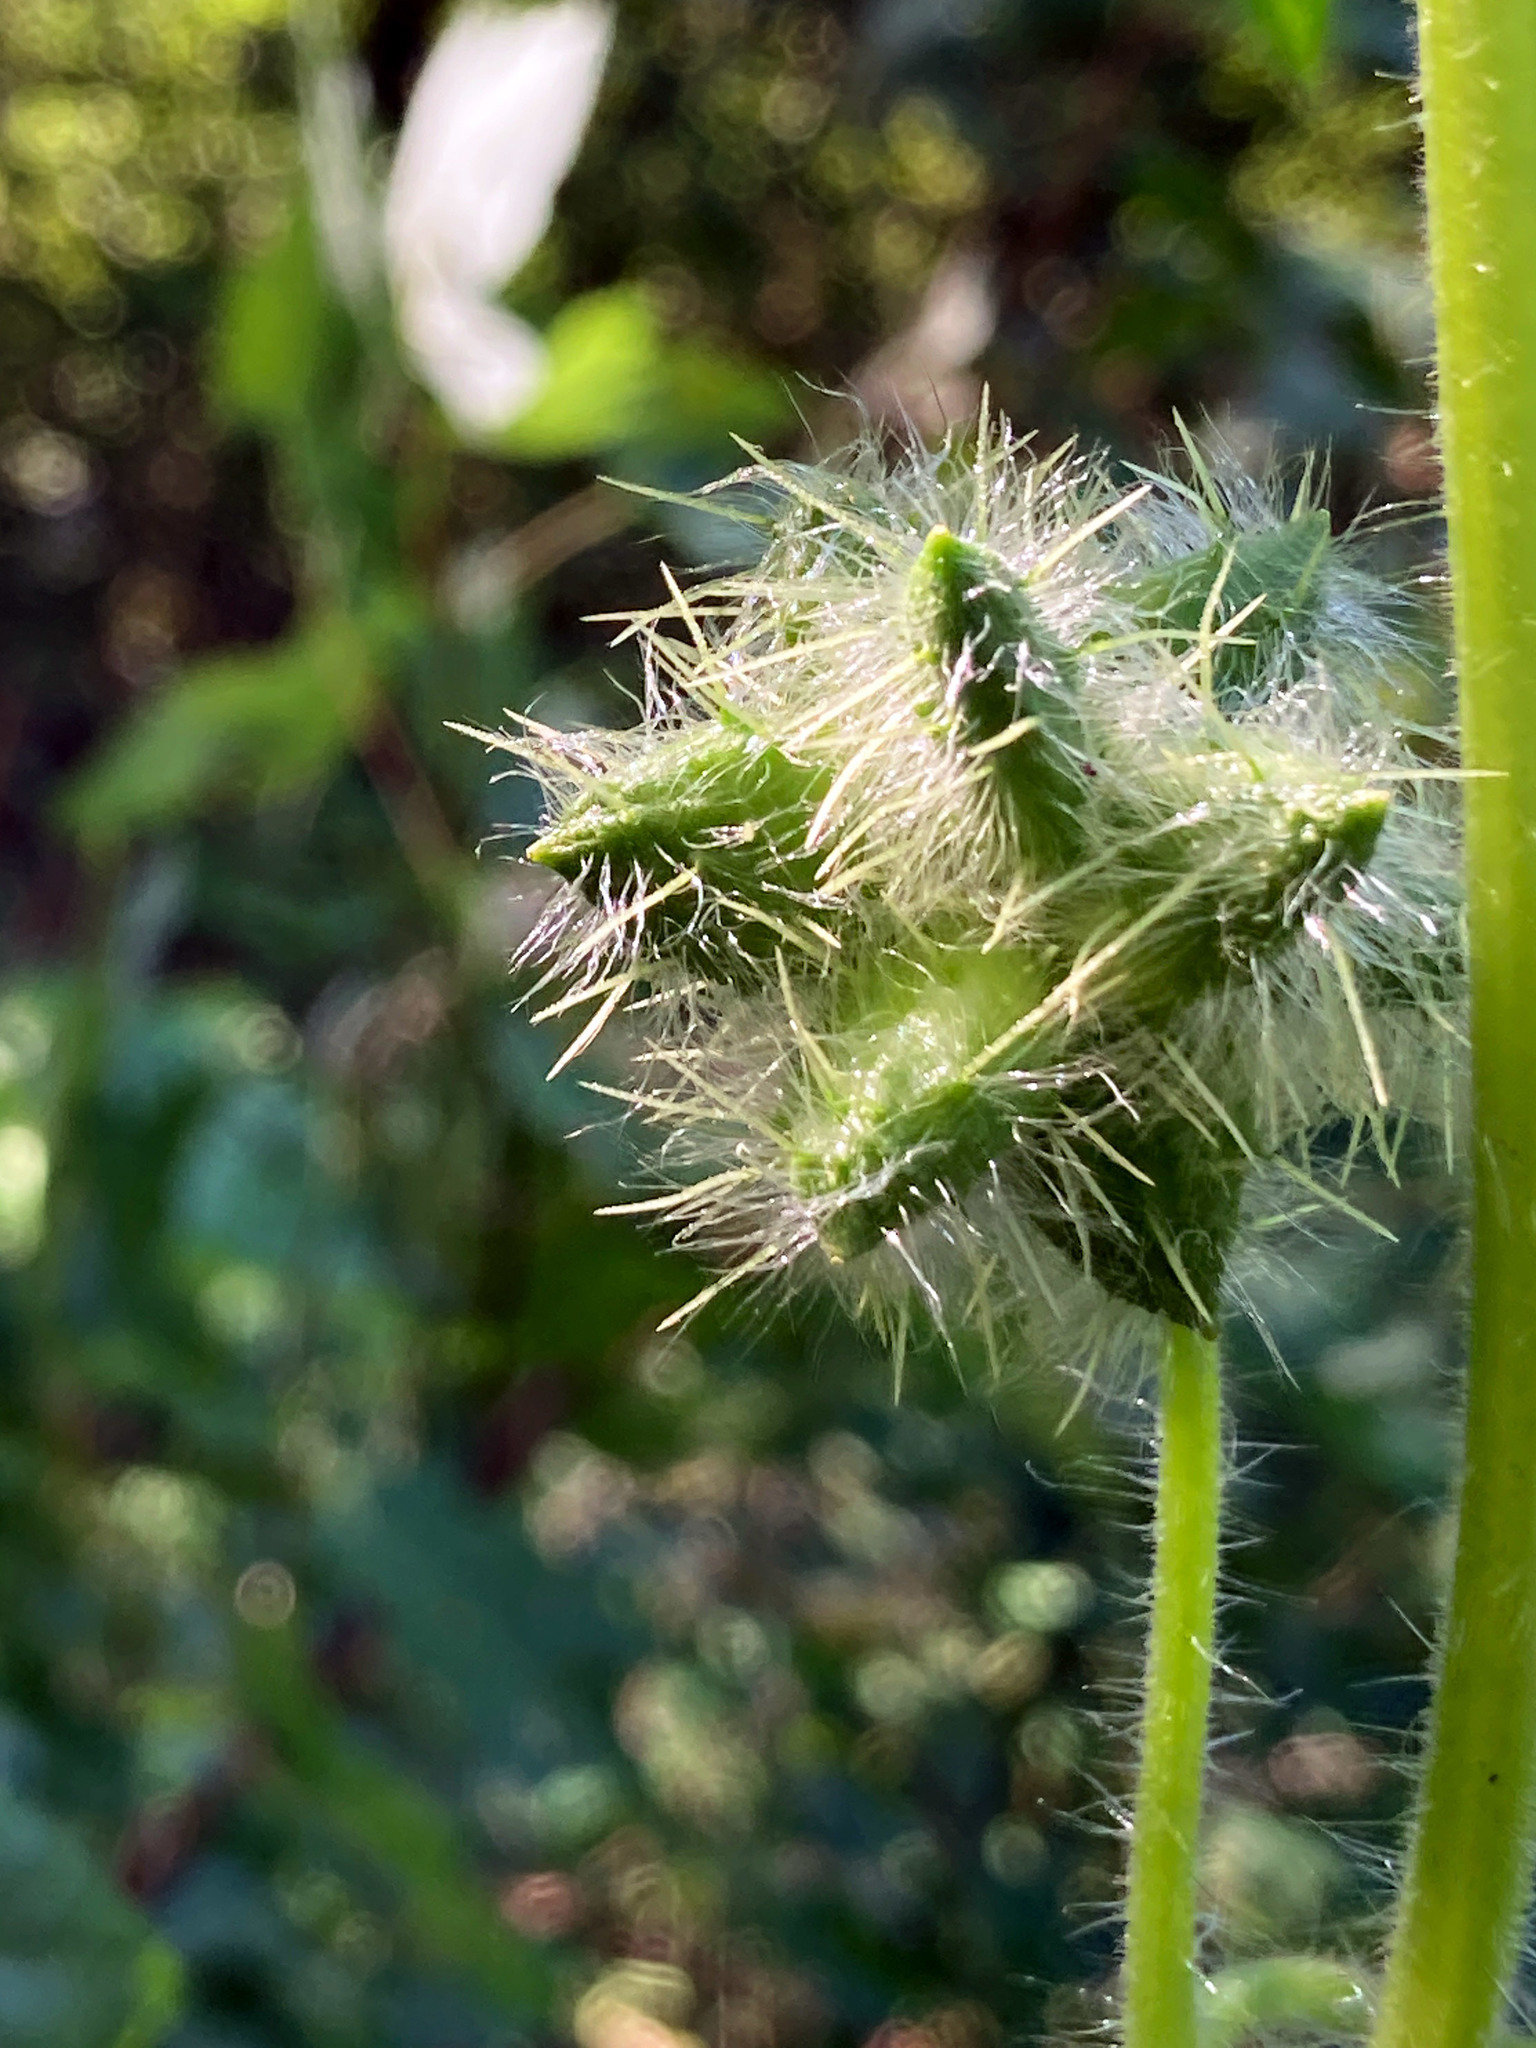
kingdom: Plantae
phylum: Tracheophyta
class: Magnoliopsida
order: Cucurbitales
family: Cucurbitaceae
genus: Sicyos
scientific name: Sicyos angulatus
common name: Angled burr cucumber
